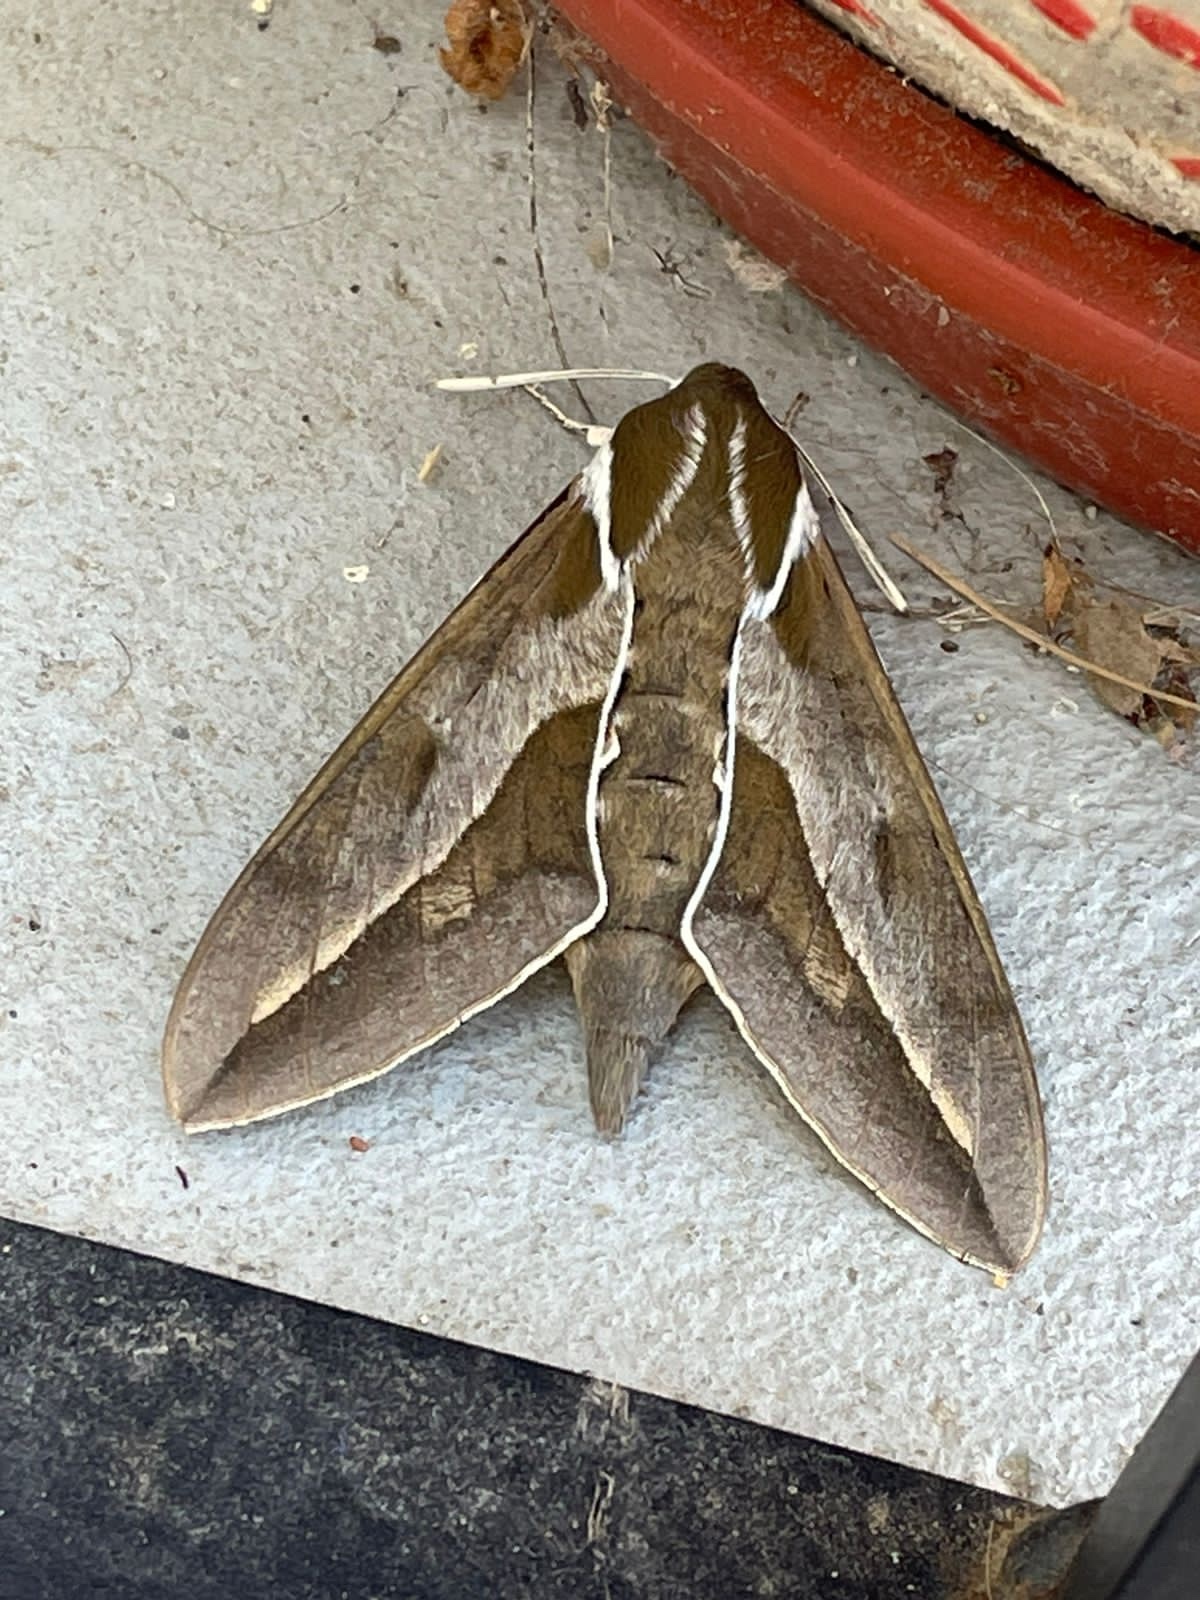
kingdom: Animalia
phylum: Arthropoda
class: Insecta
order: Lepidoptera
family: Sphingidae
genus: Hyles
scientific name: Hyles annei
